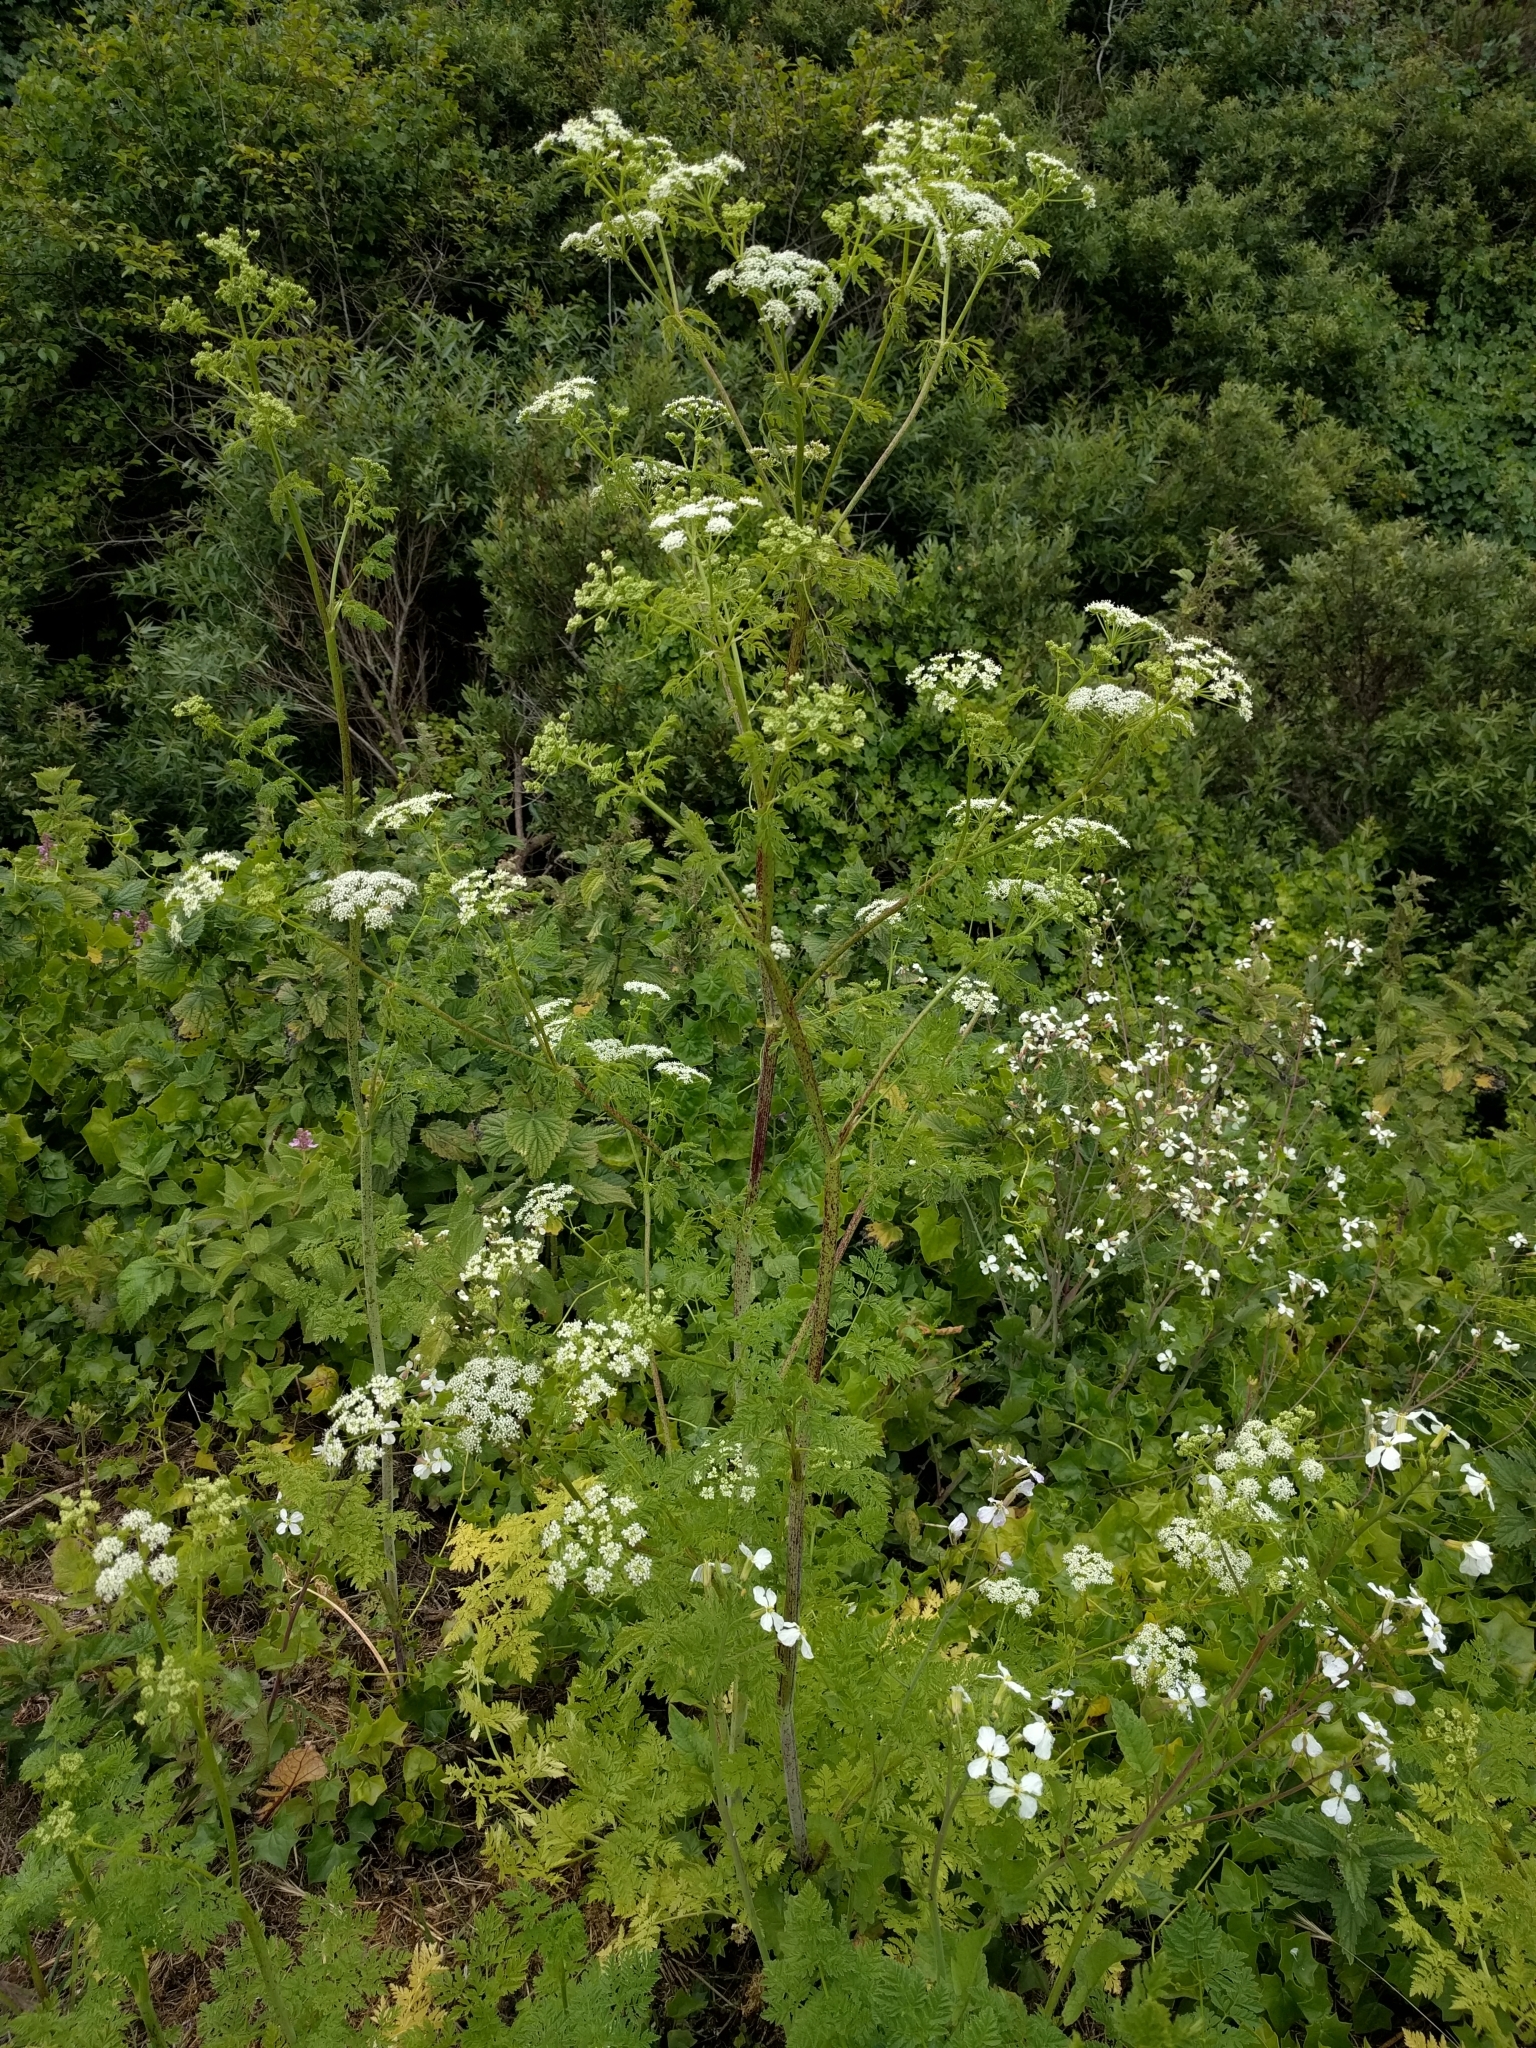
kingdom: Plantae
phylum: Tracheophyta
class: Magnoliopsida
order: Apiales
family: Apiaceae
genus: Conium
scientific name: Conium maculatum
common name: Hemlock
